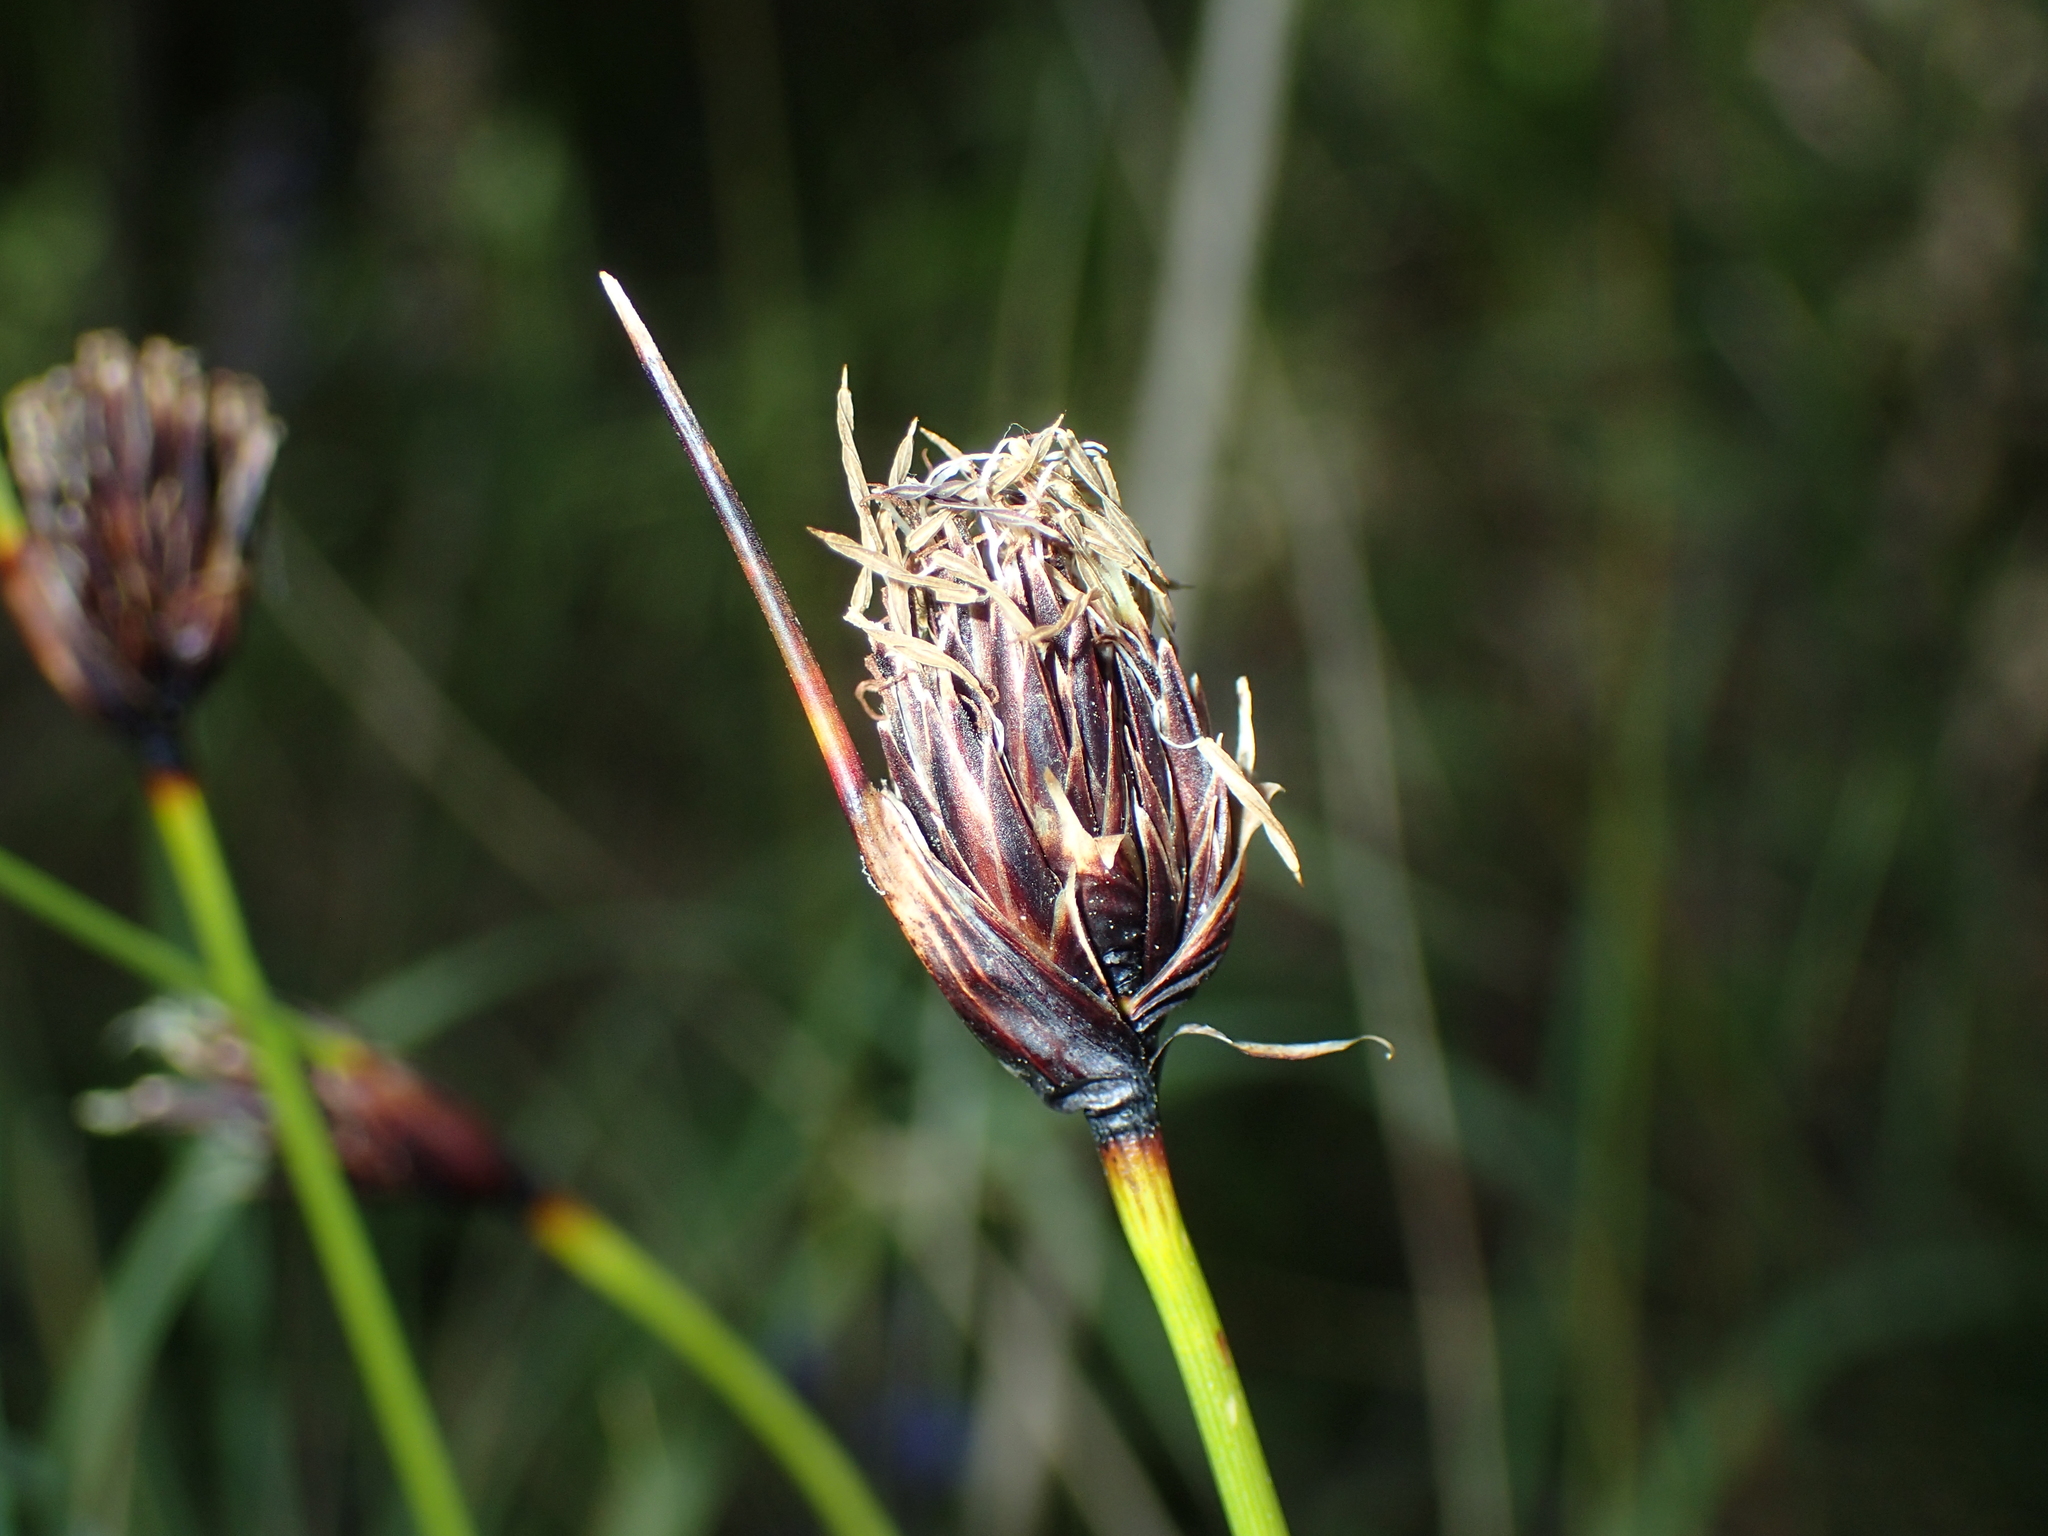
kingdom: Plantae
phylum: Tracheophyta
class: Liliopsida
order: Poales
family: Cyperaceae
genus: Schoenus
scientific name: Schoenus nigricans
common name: Black bog-rush
